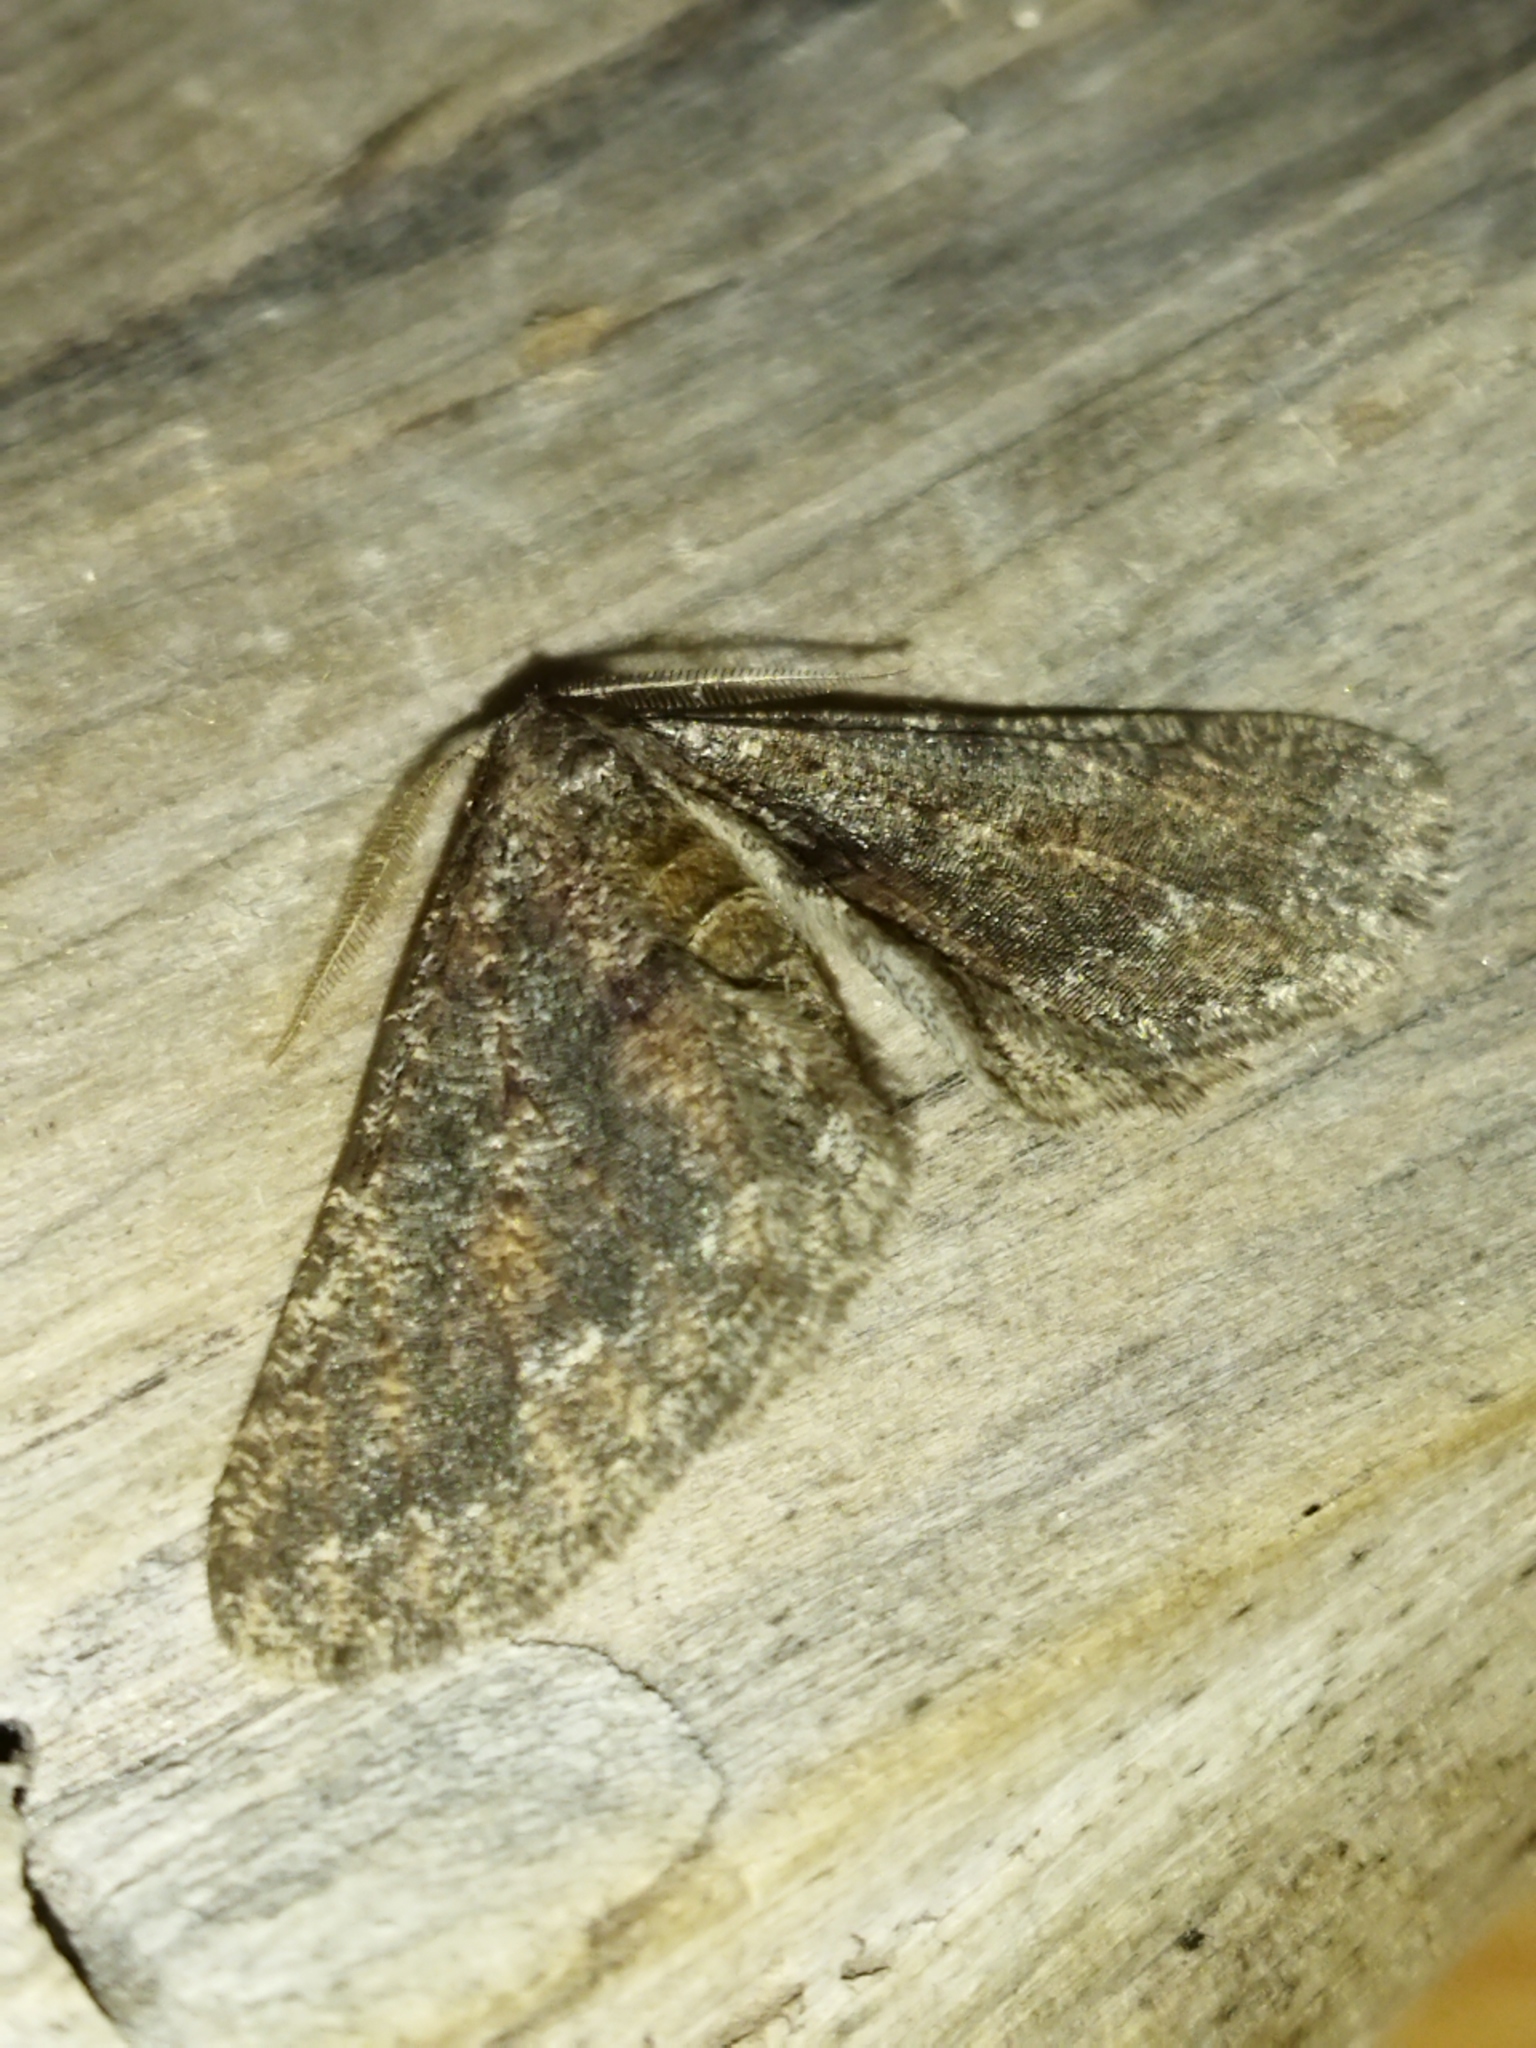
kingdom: Animalia
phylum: Arthropoda
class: Insecta
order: Lepidoptera
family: Geometridae
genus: Agriopis
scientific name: Agriopis bajaria
